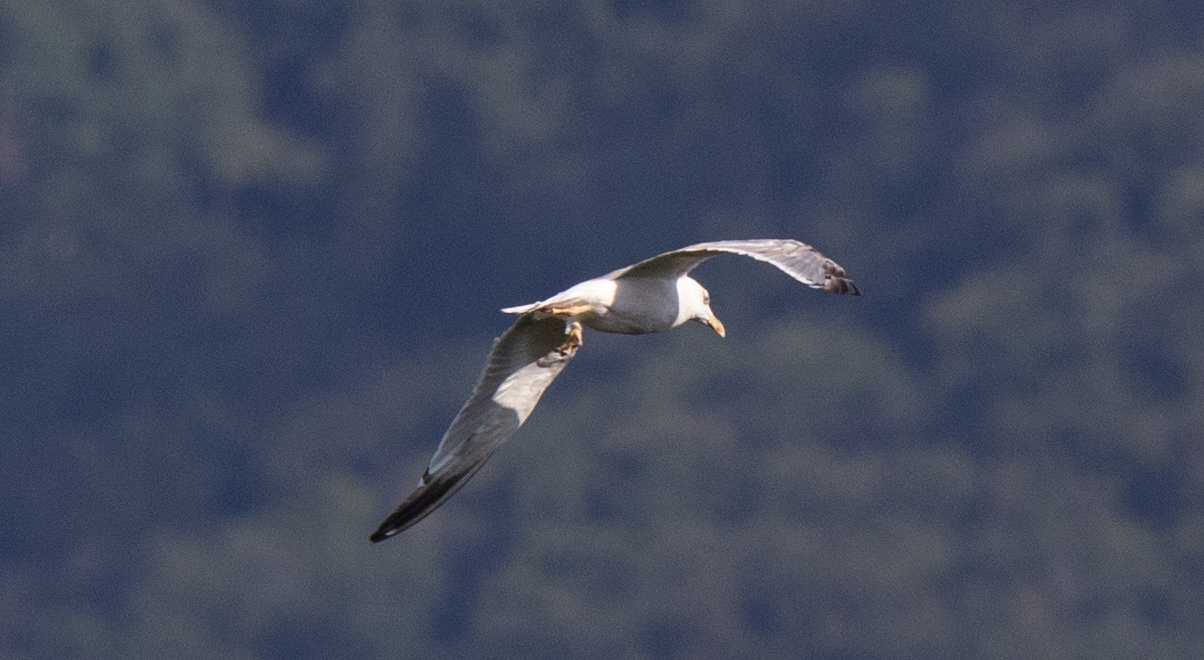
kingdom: Animalia
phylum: Chordata
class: Aves
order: Charadriiformes
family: Laridae
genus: Larus
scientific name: Larus michahellis
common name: Yellow-legged gull
